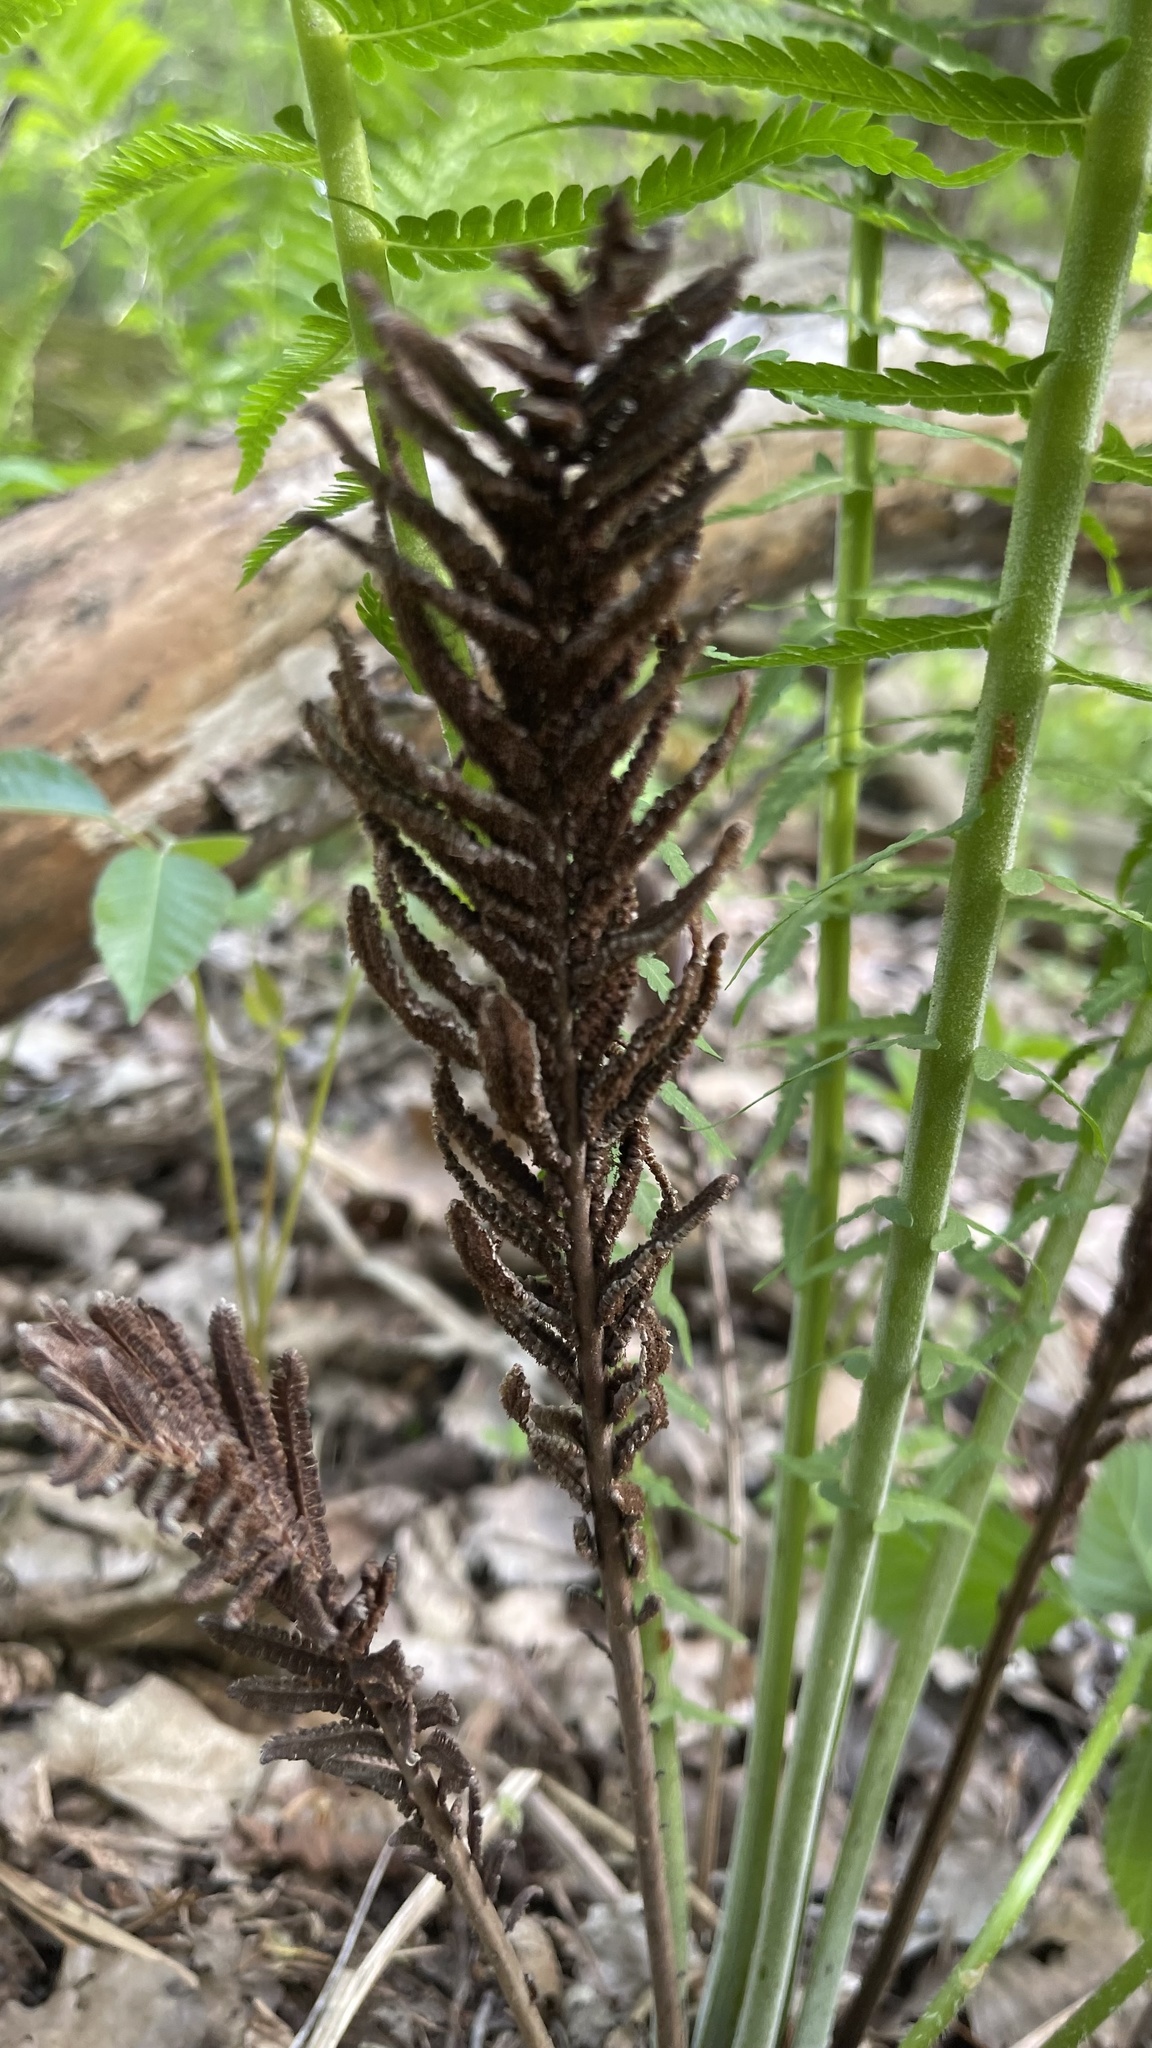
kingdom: Plantae
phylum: Tracheophyta
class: Polypodiopsida
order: Polypodiales
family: Onocleaceae
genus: Matteuccia
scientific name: Matteuccia struthiopteris
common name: Ostrich fern
